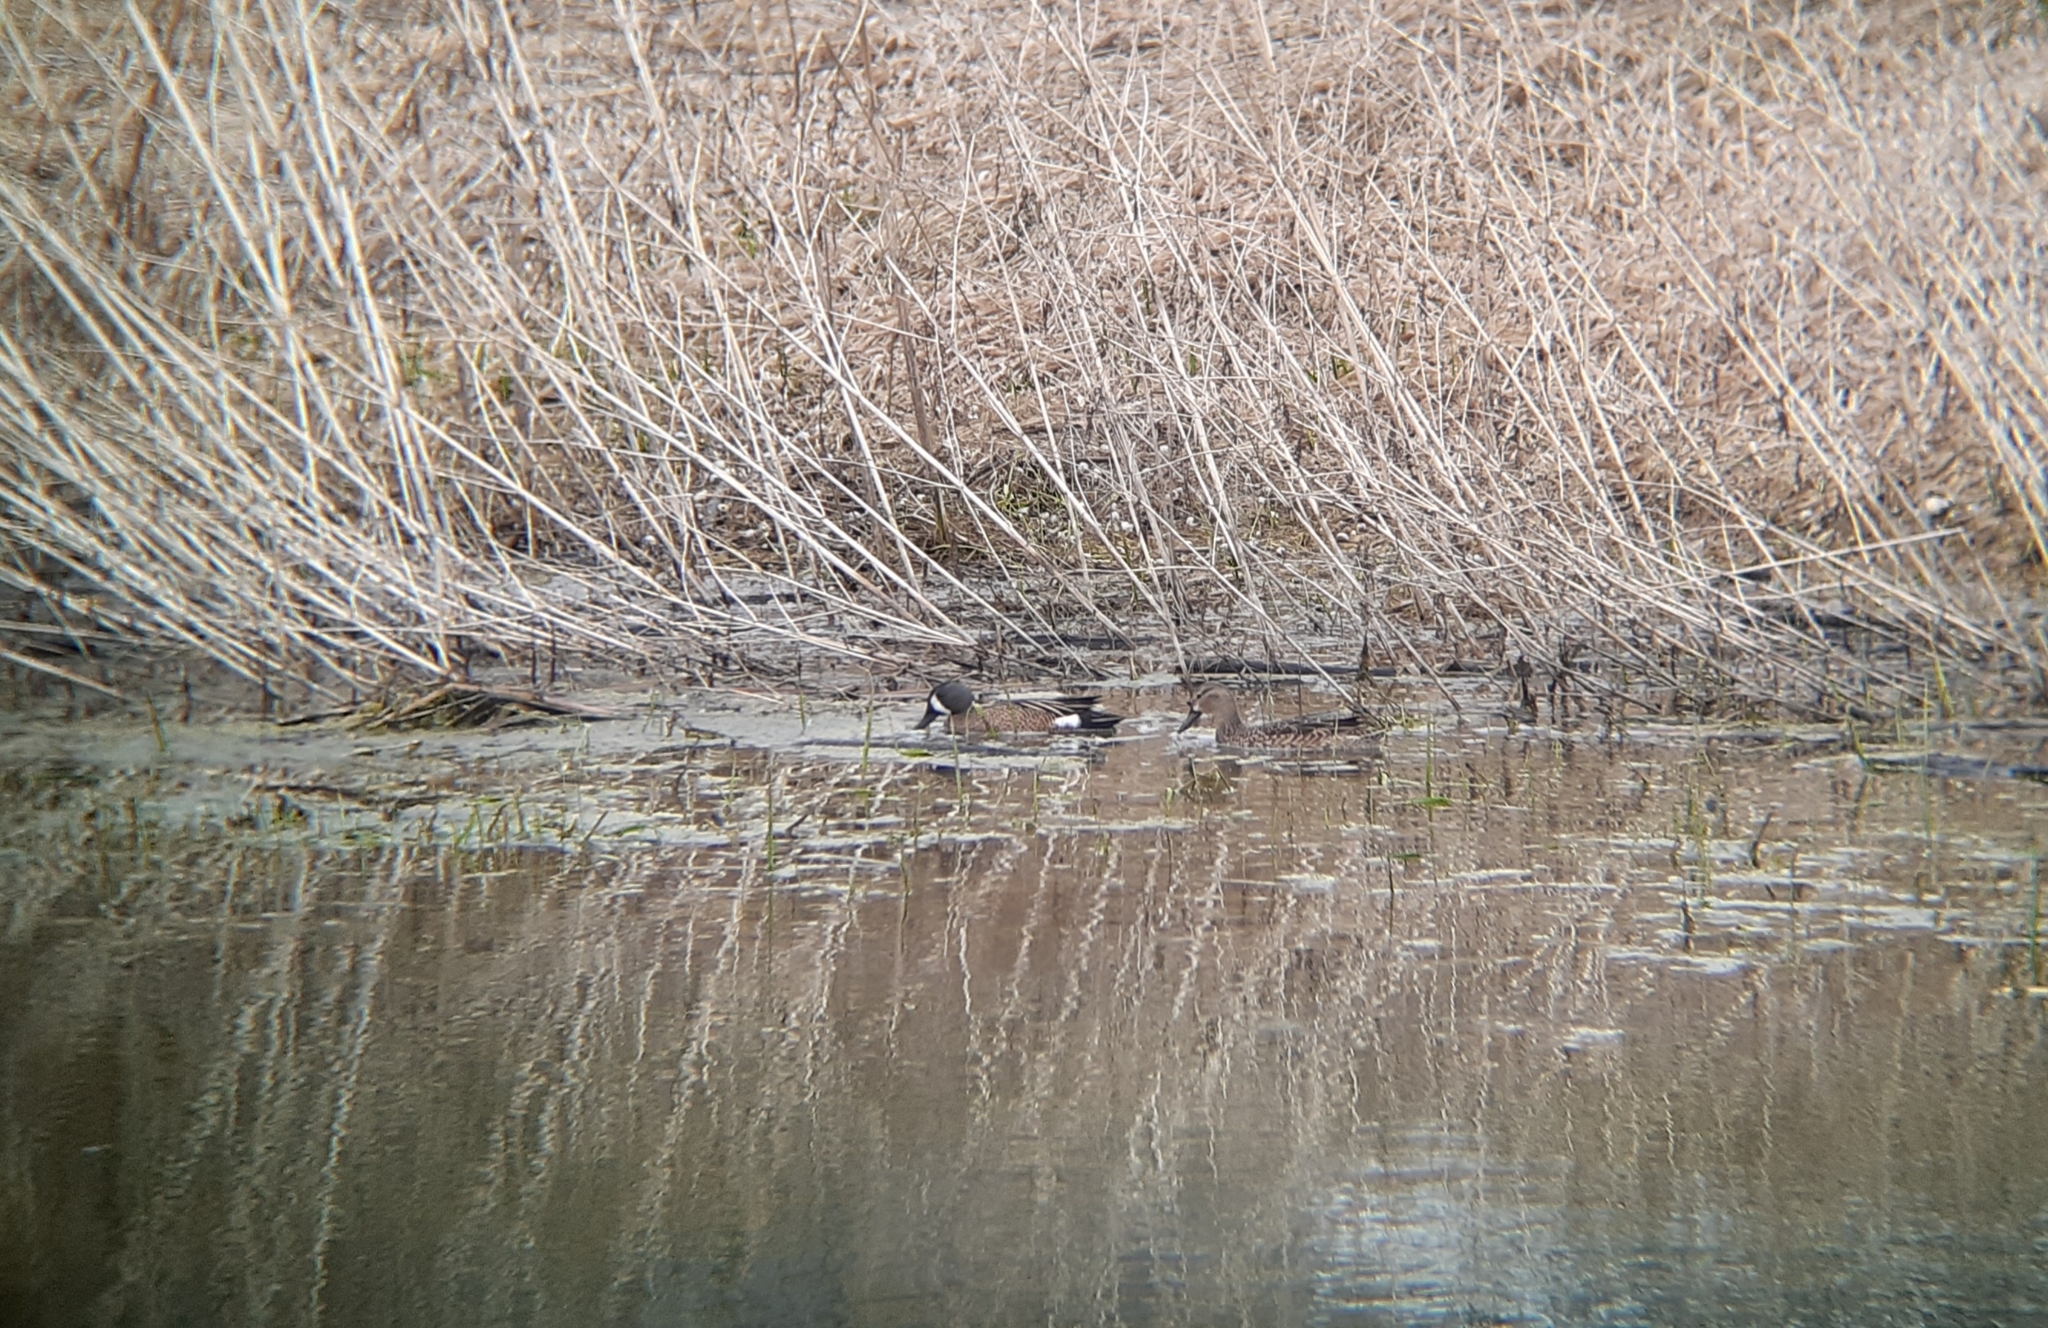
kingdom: Animalia
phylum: Chordata
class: Aves
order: Anseriformes
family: Anatidae
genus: Spatula
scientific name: Spatula discors
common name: Blue-winged teal
